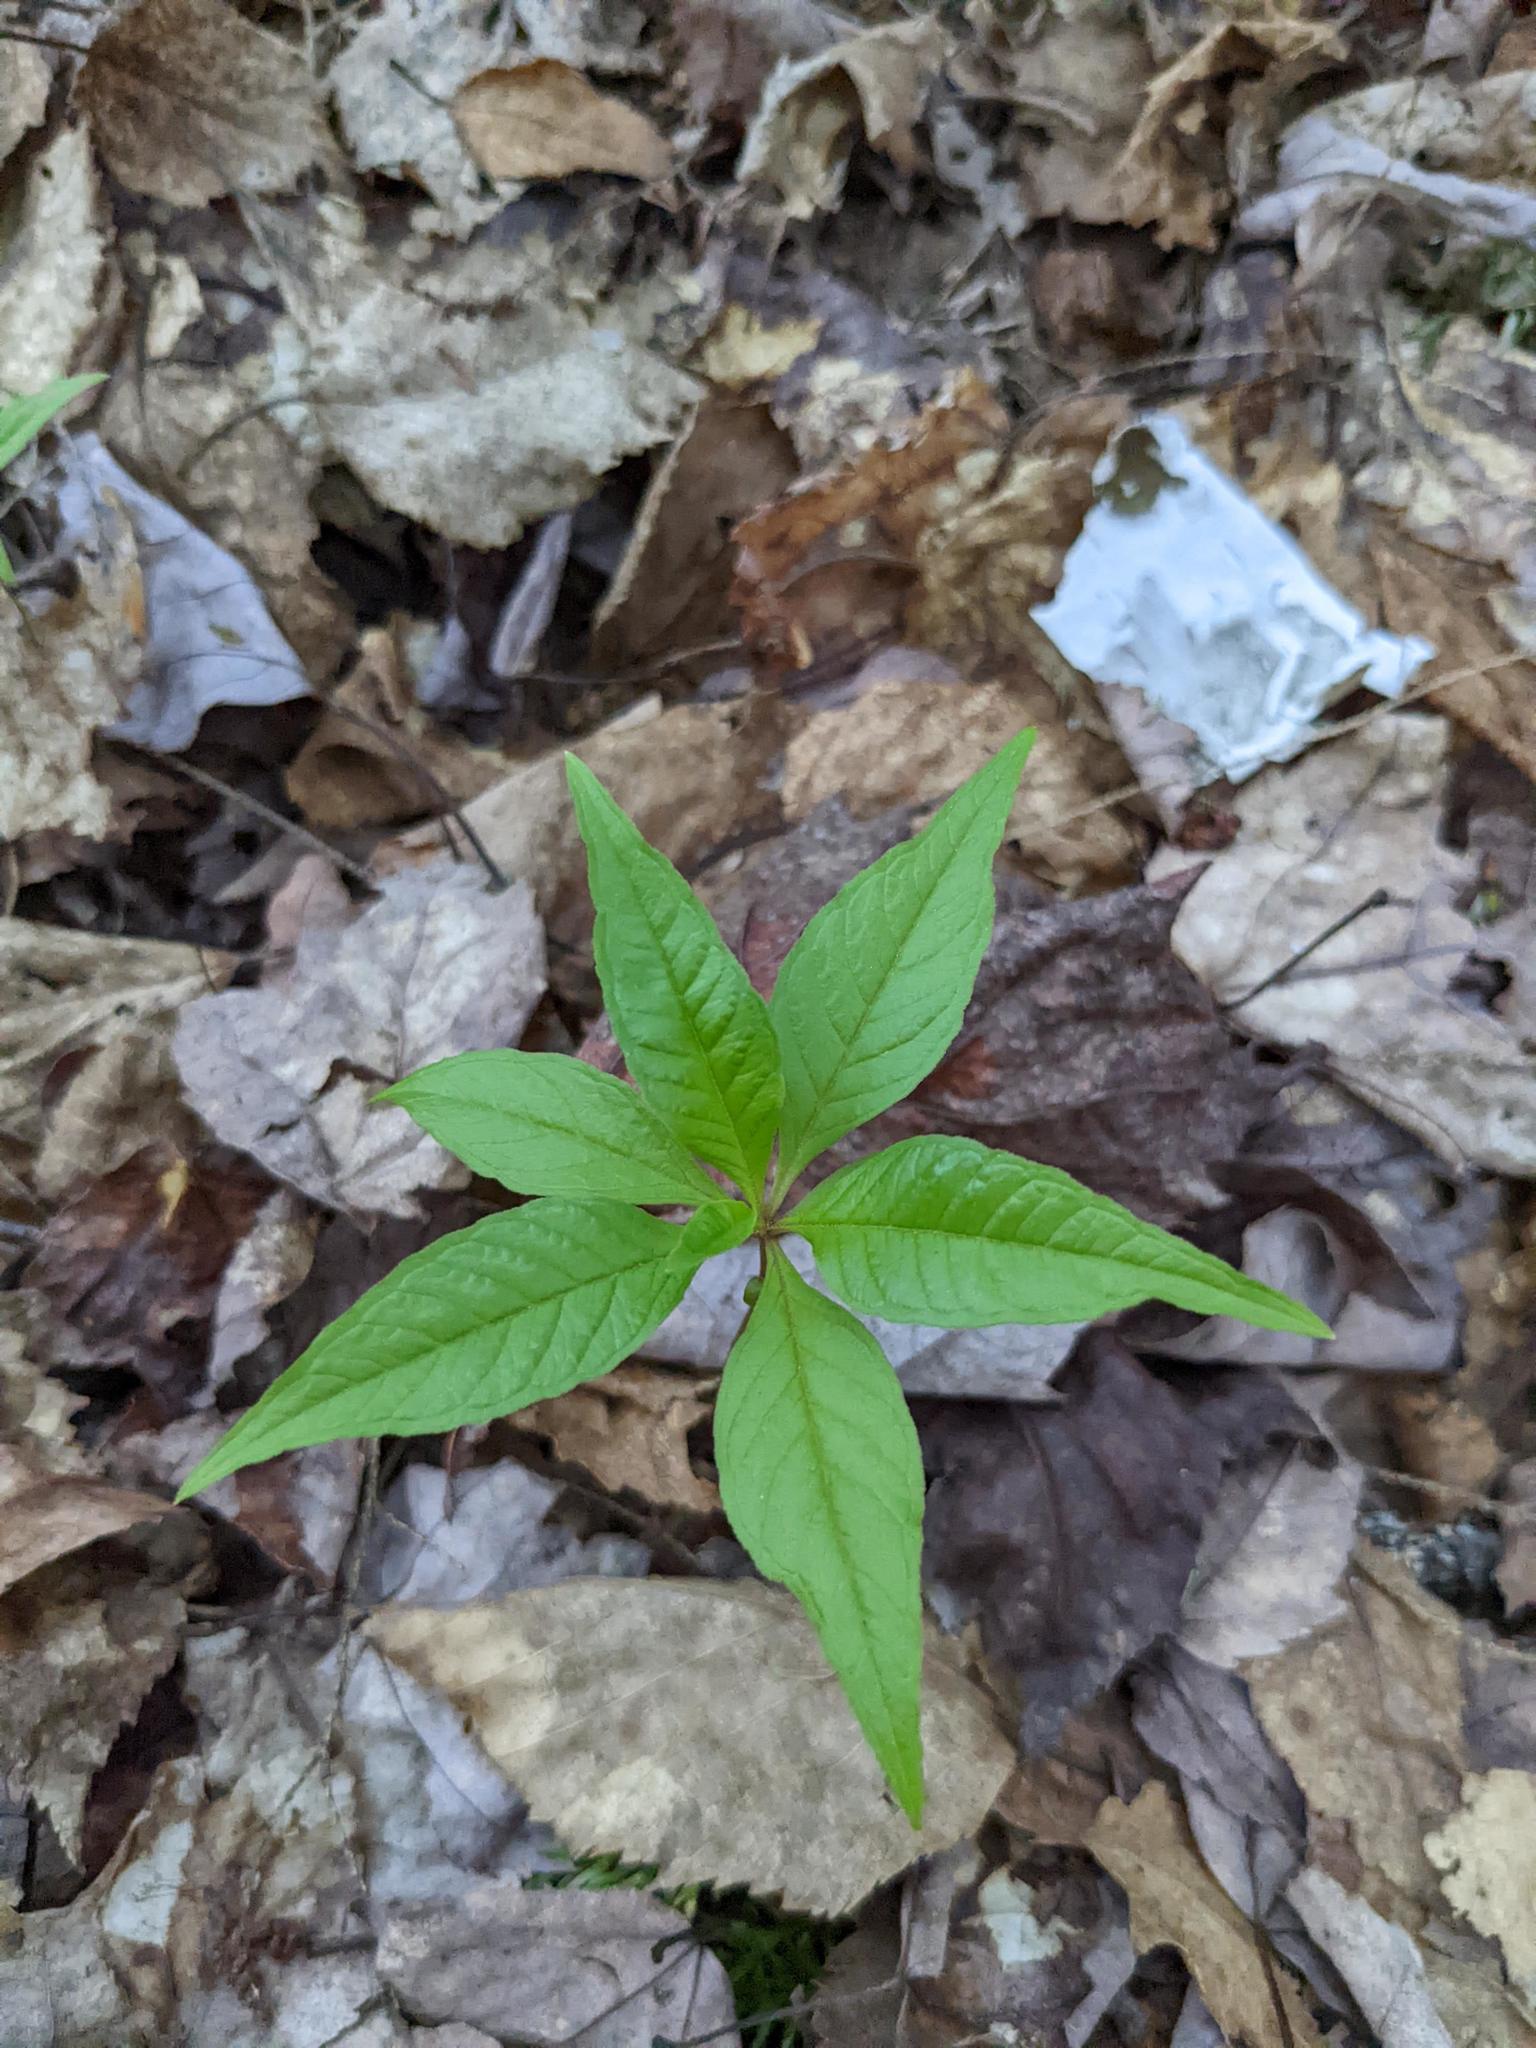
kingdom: Plantae
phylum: Tracheophyta
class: Magnoliopsida
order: Ericales
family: Primulaceae
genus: Lysimachia
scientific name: Lysimachia borealis
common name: American starflower
